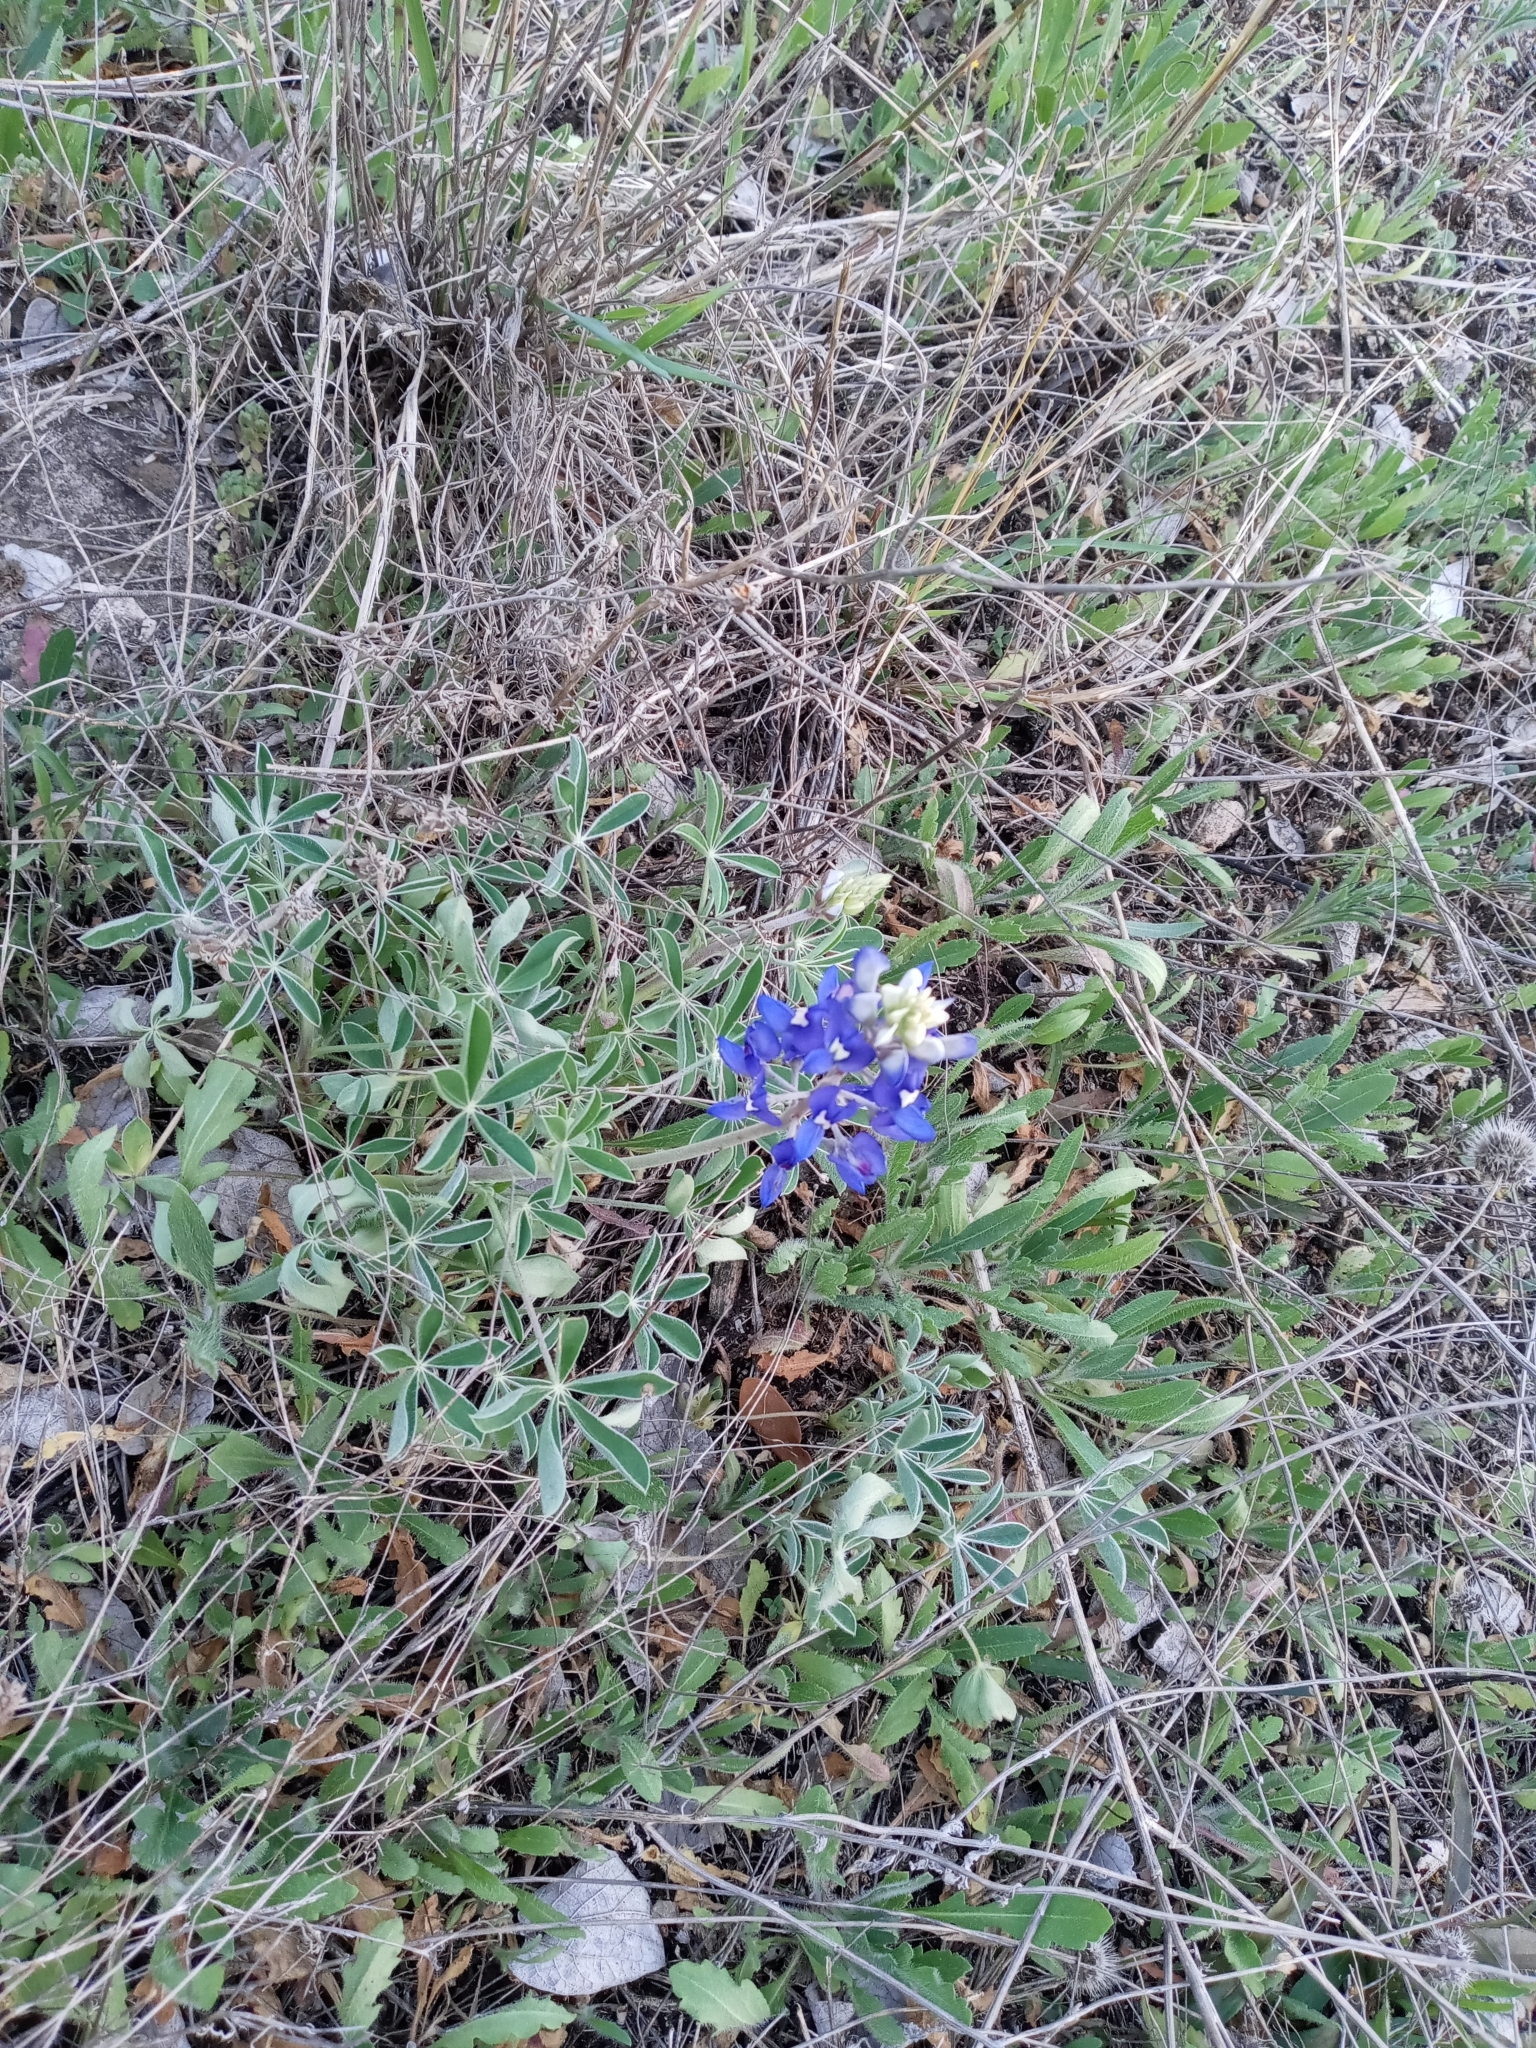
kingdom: Plantae
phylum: Tracheophyta
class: Magnoliopsida
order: Fabales
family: Fabaceae
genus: Lupinus
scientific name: Lupinus texensis
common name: Texas bluebonnet
